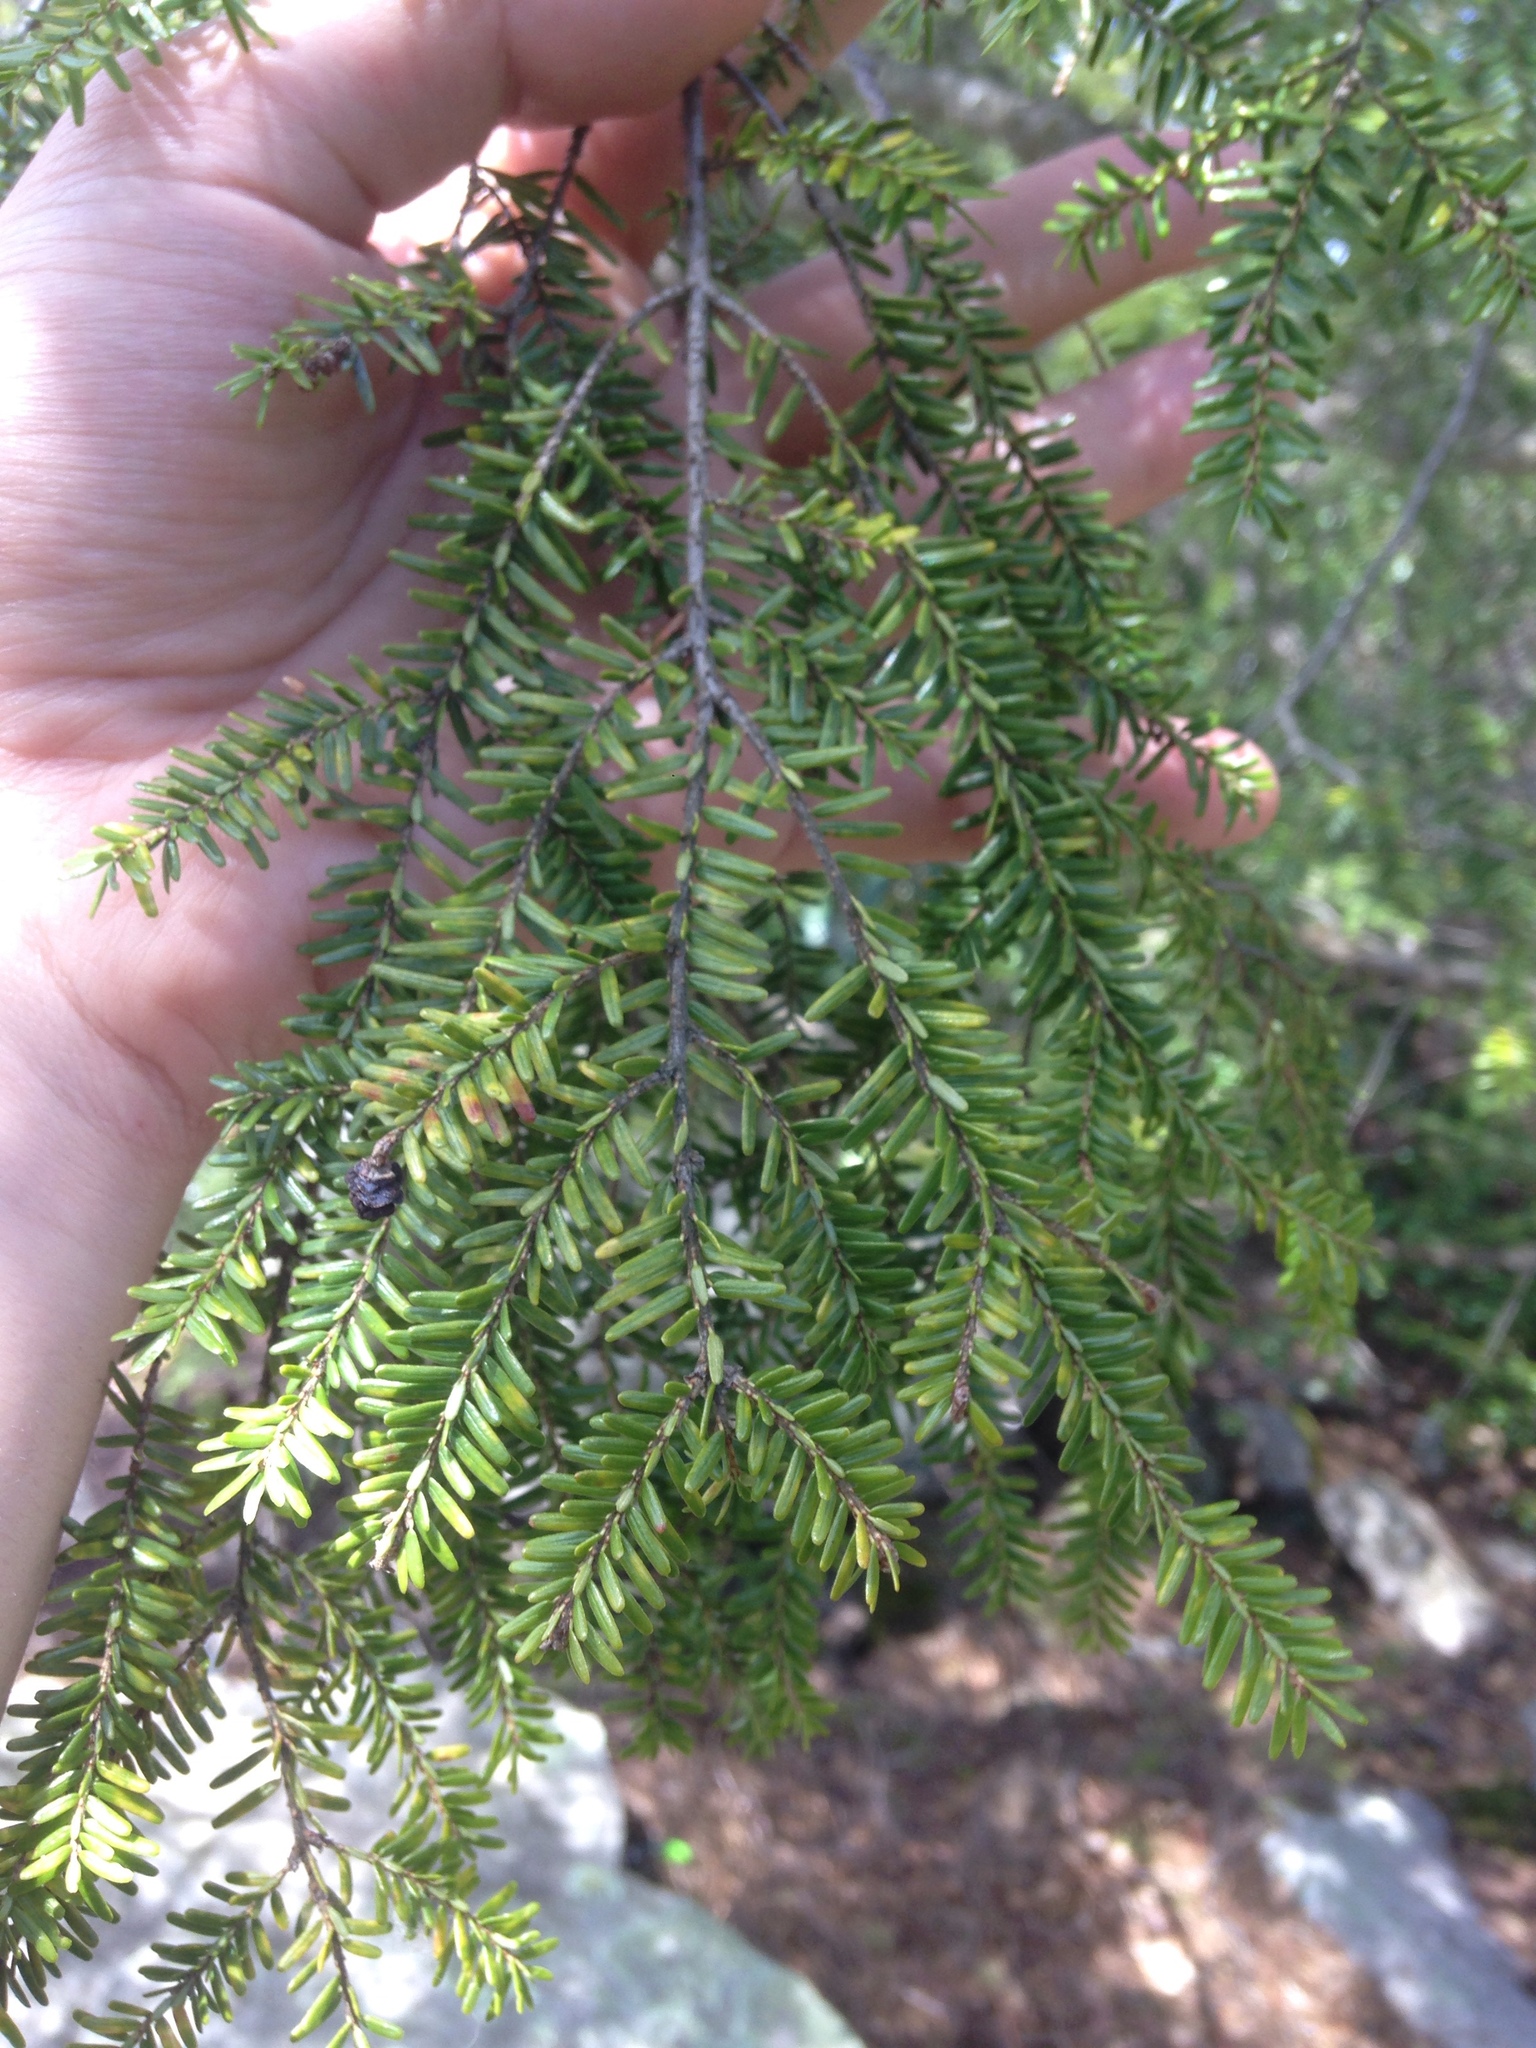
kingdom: Plantae
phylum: Tracheophyta
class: Pinopsida
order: Pinales
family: Pinaceae
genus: Tsuga
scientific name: Tsuga canadensis
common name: Eastern hemlock
